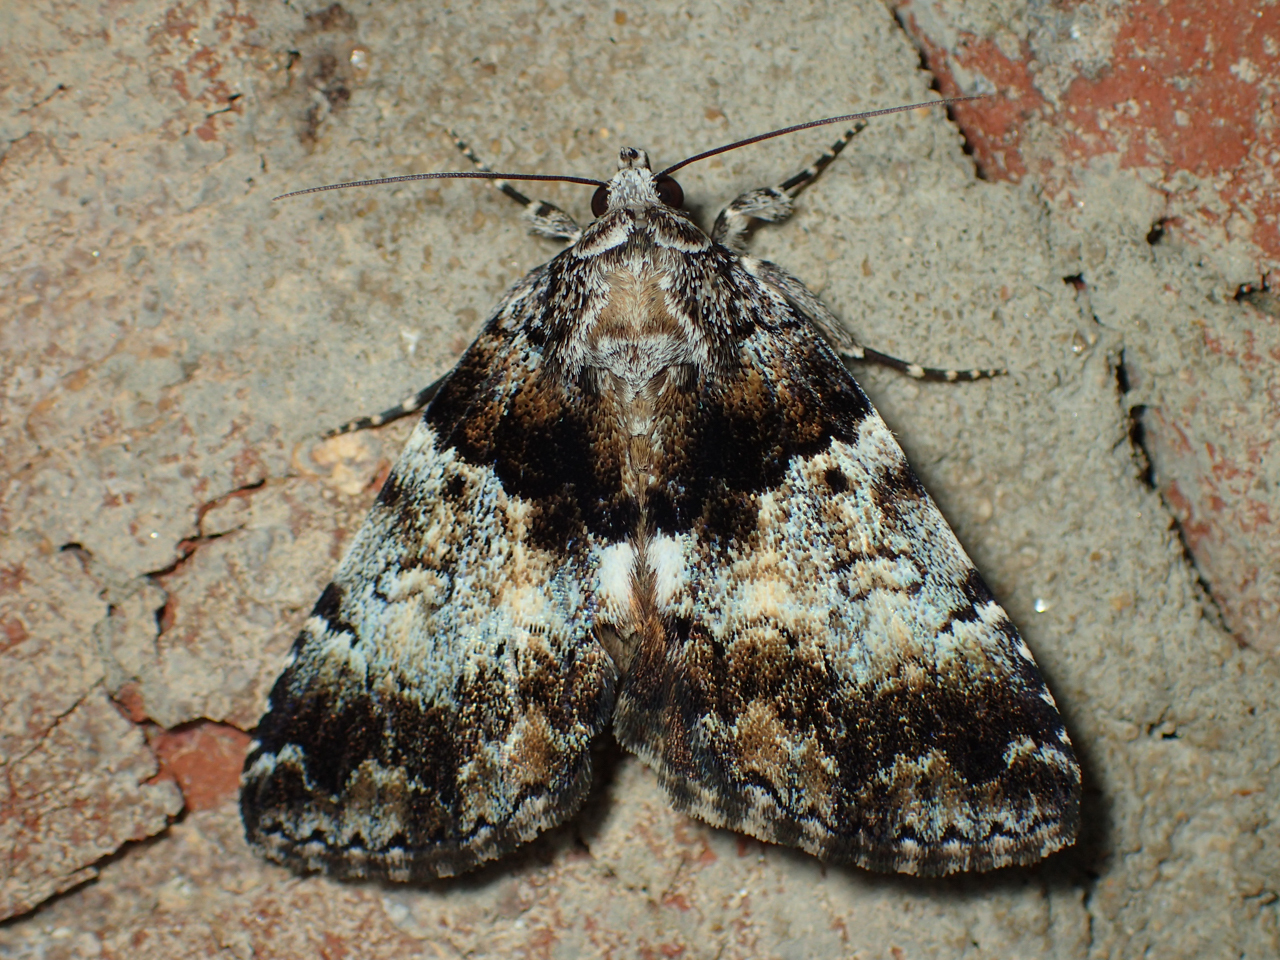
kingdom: Animalia
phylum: Arthropoda
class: Insecta
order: Lepidoptera
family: Erebidae
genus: Allotria
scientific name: Allotria elonympha
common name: False underwing
